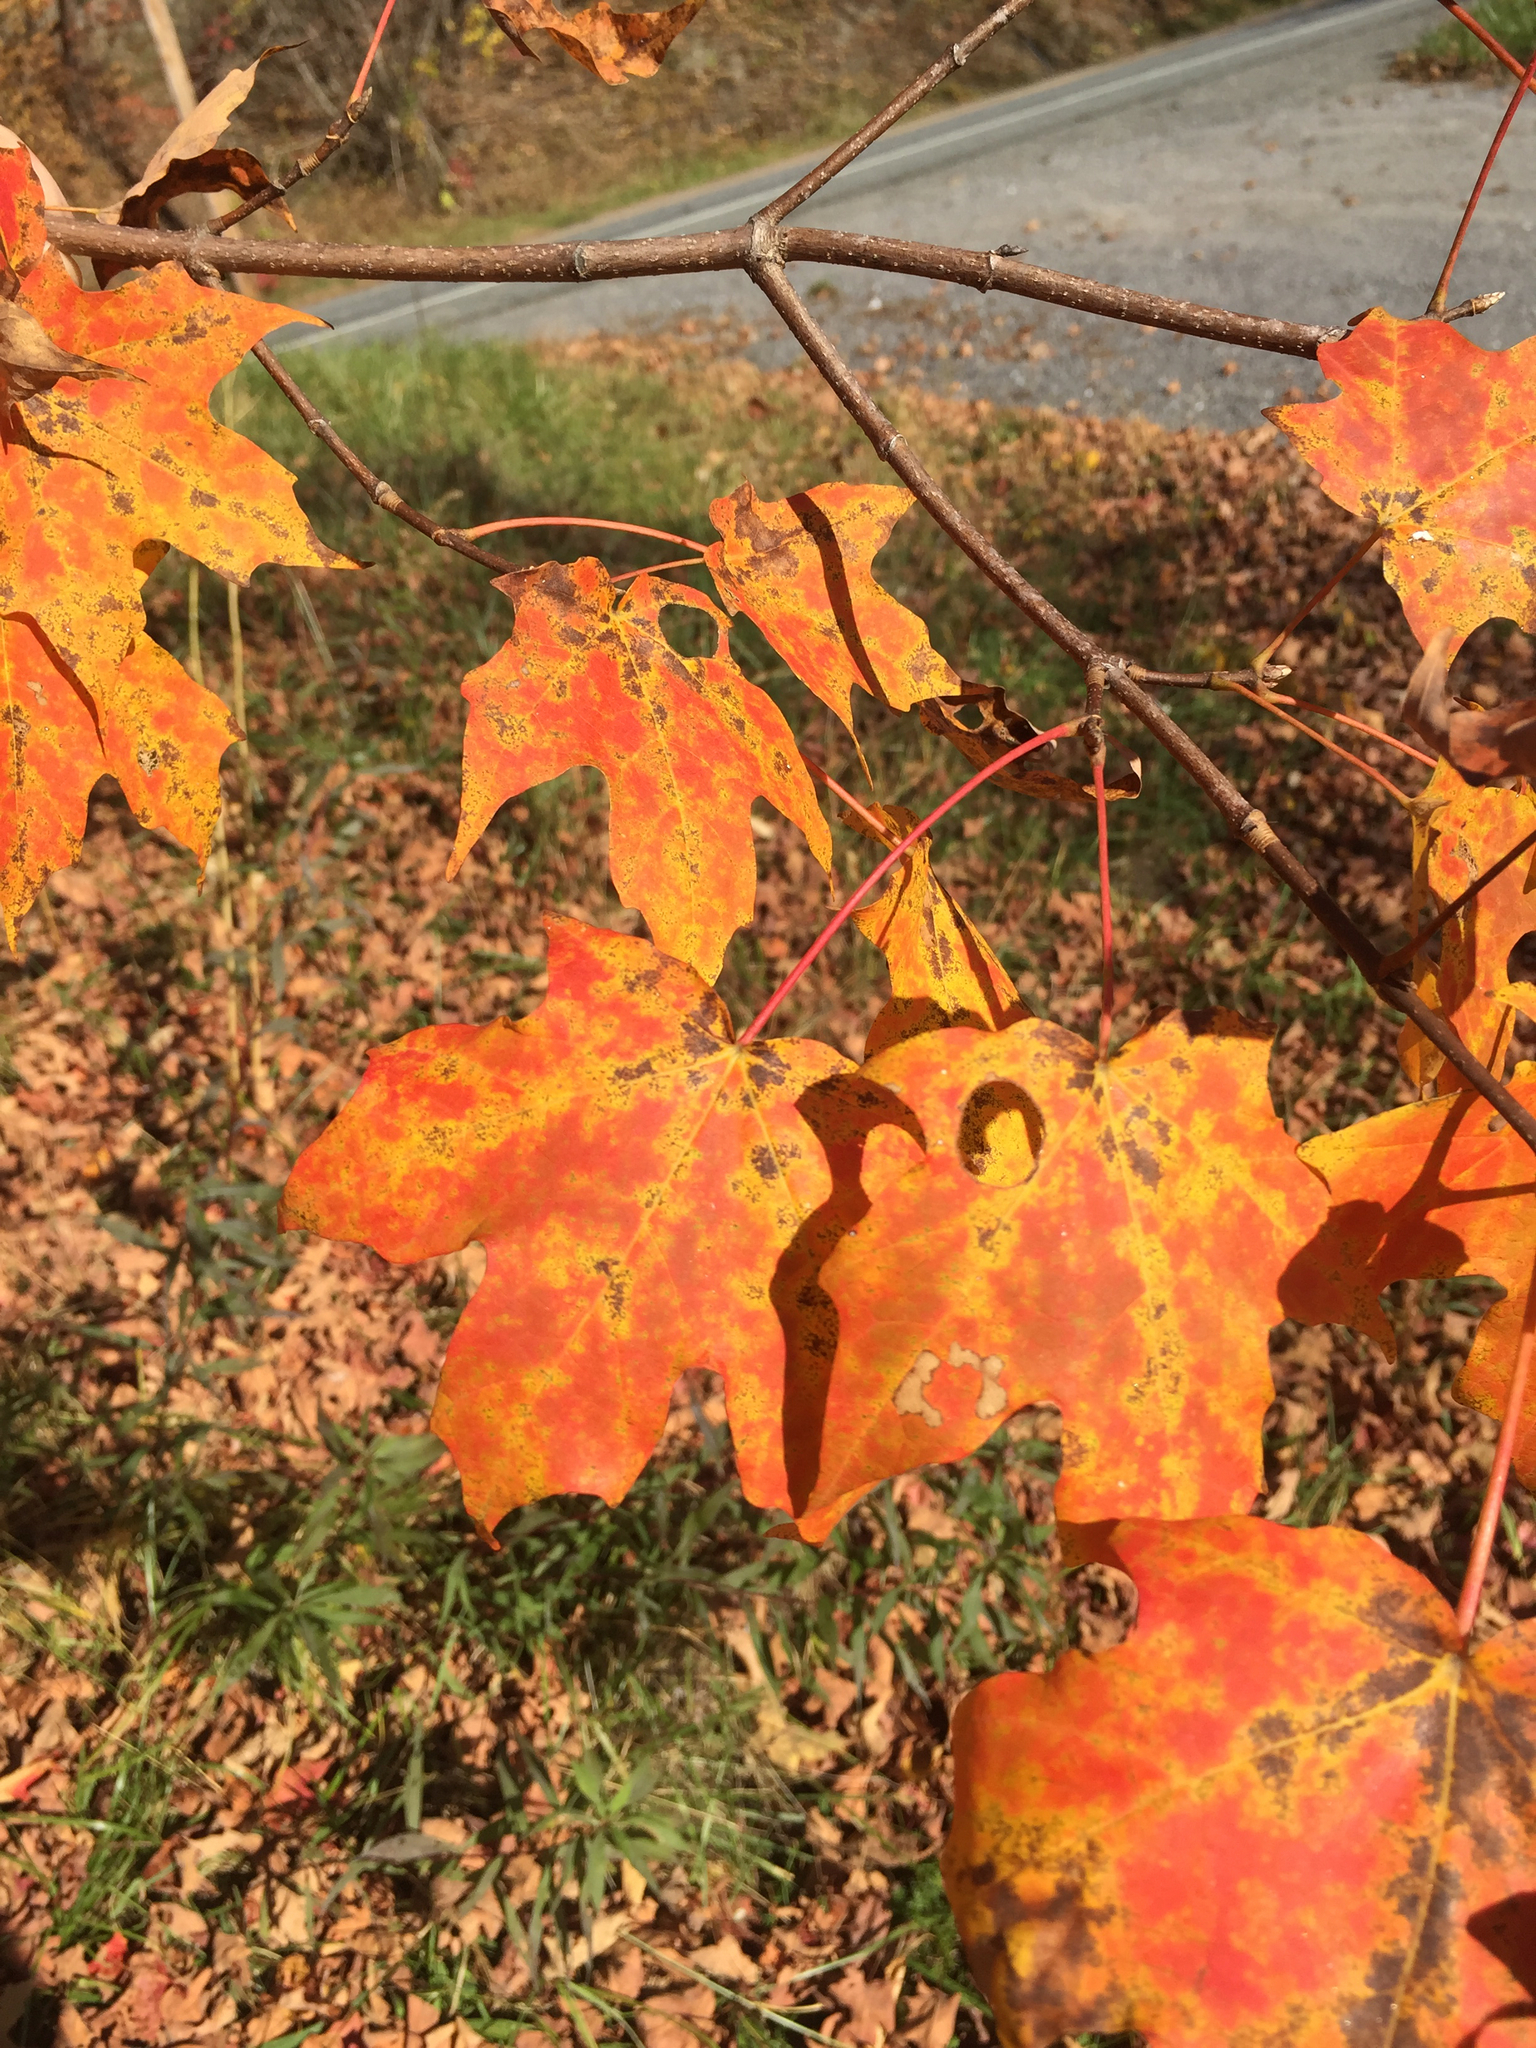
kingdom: Plantae
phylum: Tracheophyta
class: Magnoliopsida
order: Sapindales
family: Sapindaceae
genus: Acer
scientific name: Acer saccharum
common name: Sugar maple
